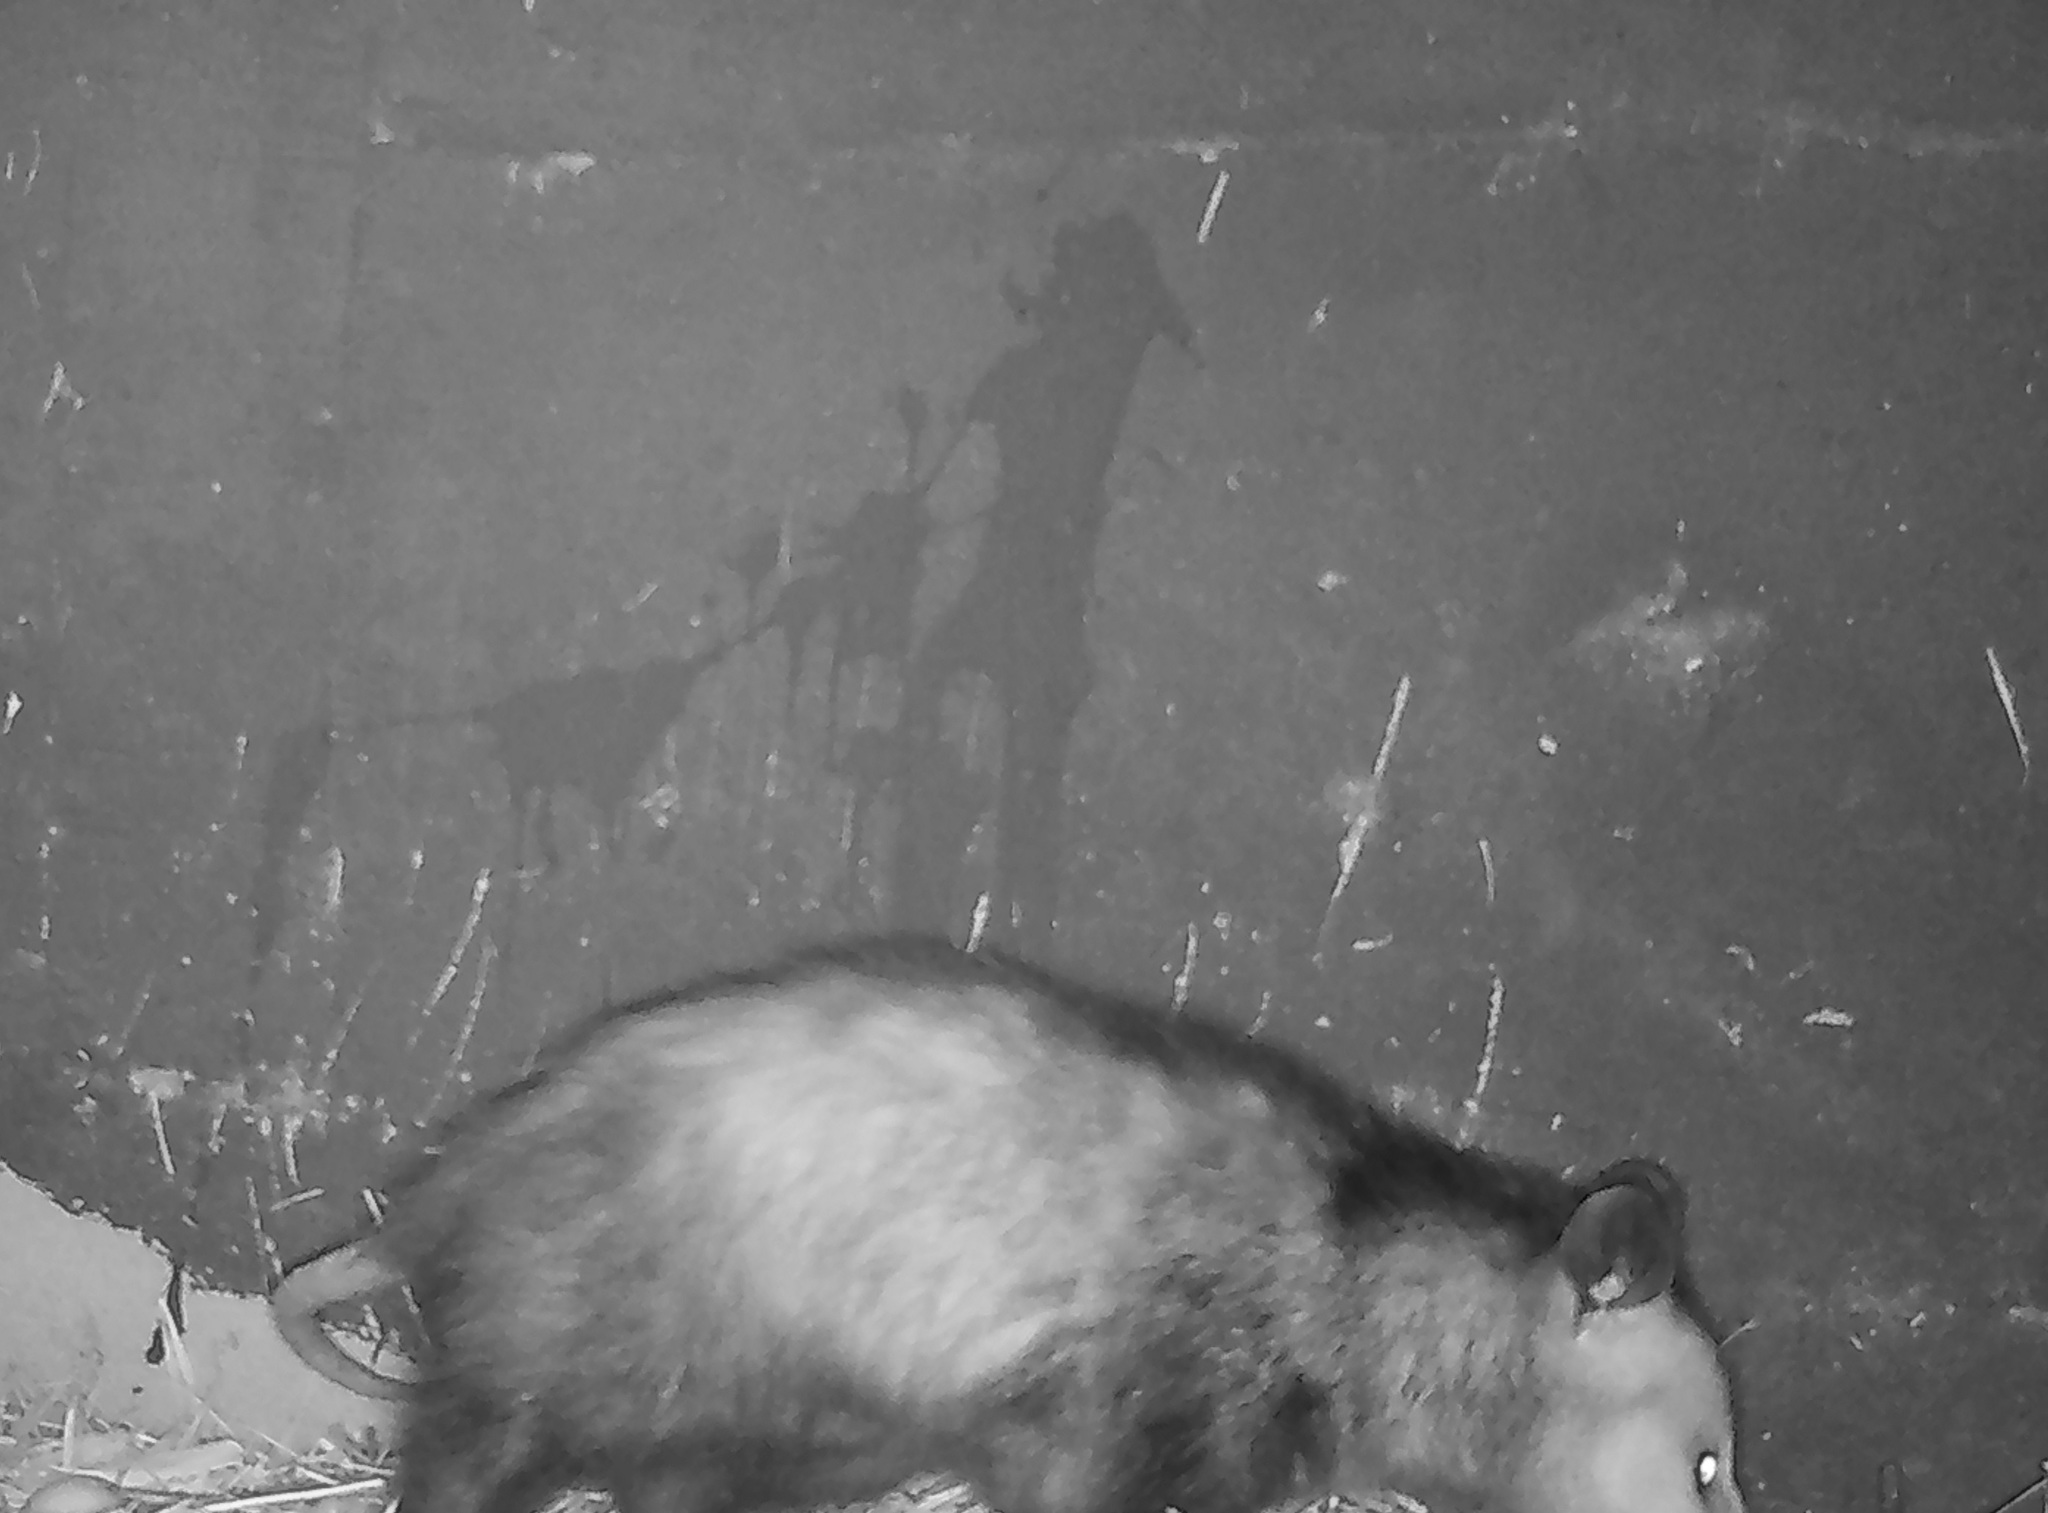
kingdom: Animalia
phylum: Chordata
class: Mammalia
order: Didelphimorphia
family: Didelphidae
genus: Didelphis
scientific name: Didelphis virginiana
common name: Virginia opossum
